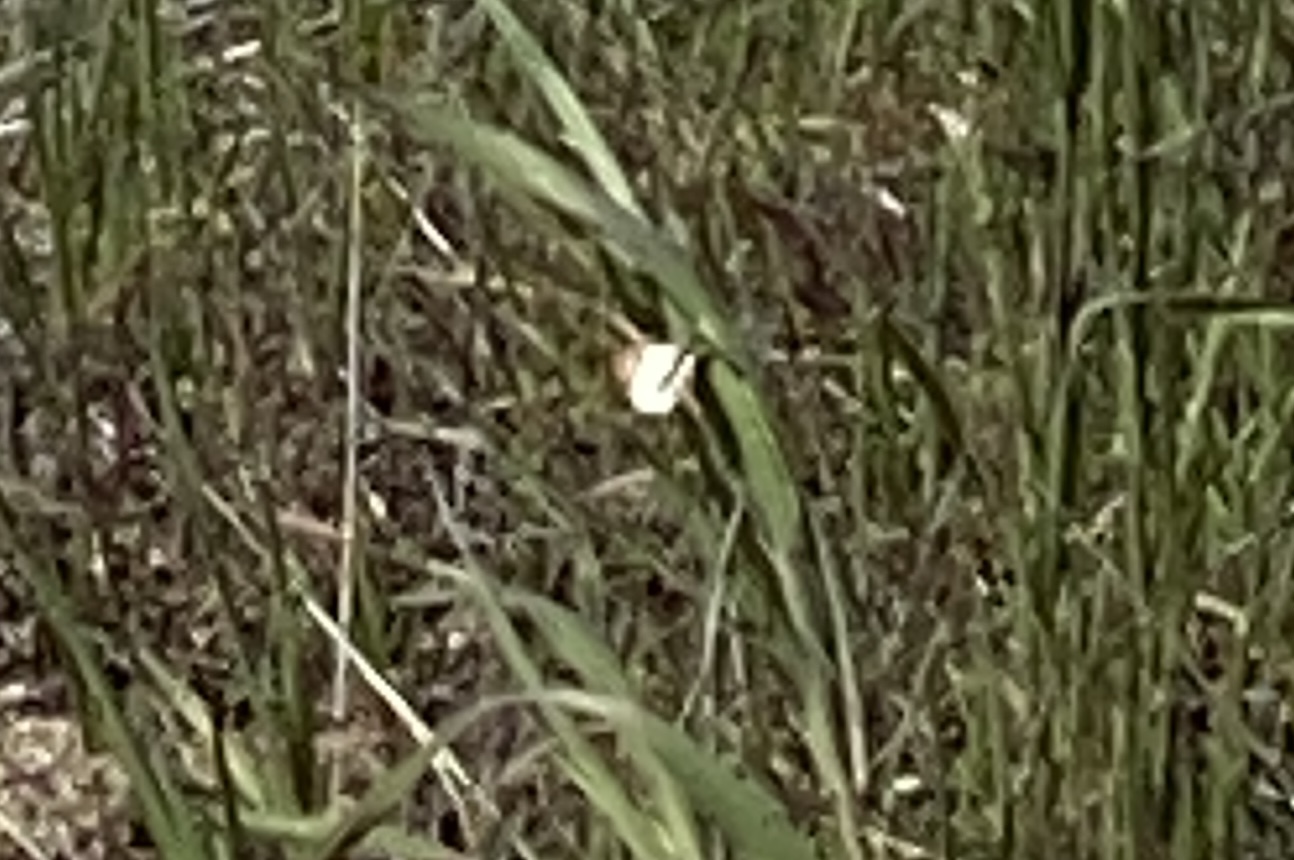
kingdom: Animalia
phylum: Arthropoda
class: Insecta
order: Lepidoptera
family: Pieridae
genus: Anthocharis
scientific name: Anthocharis sara
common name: Sara's orangetip
